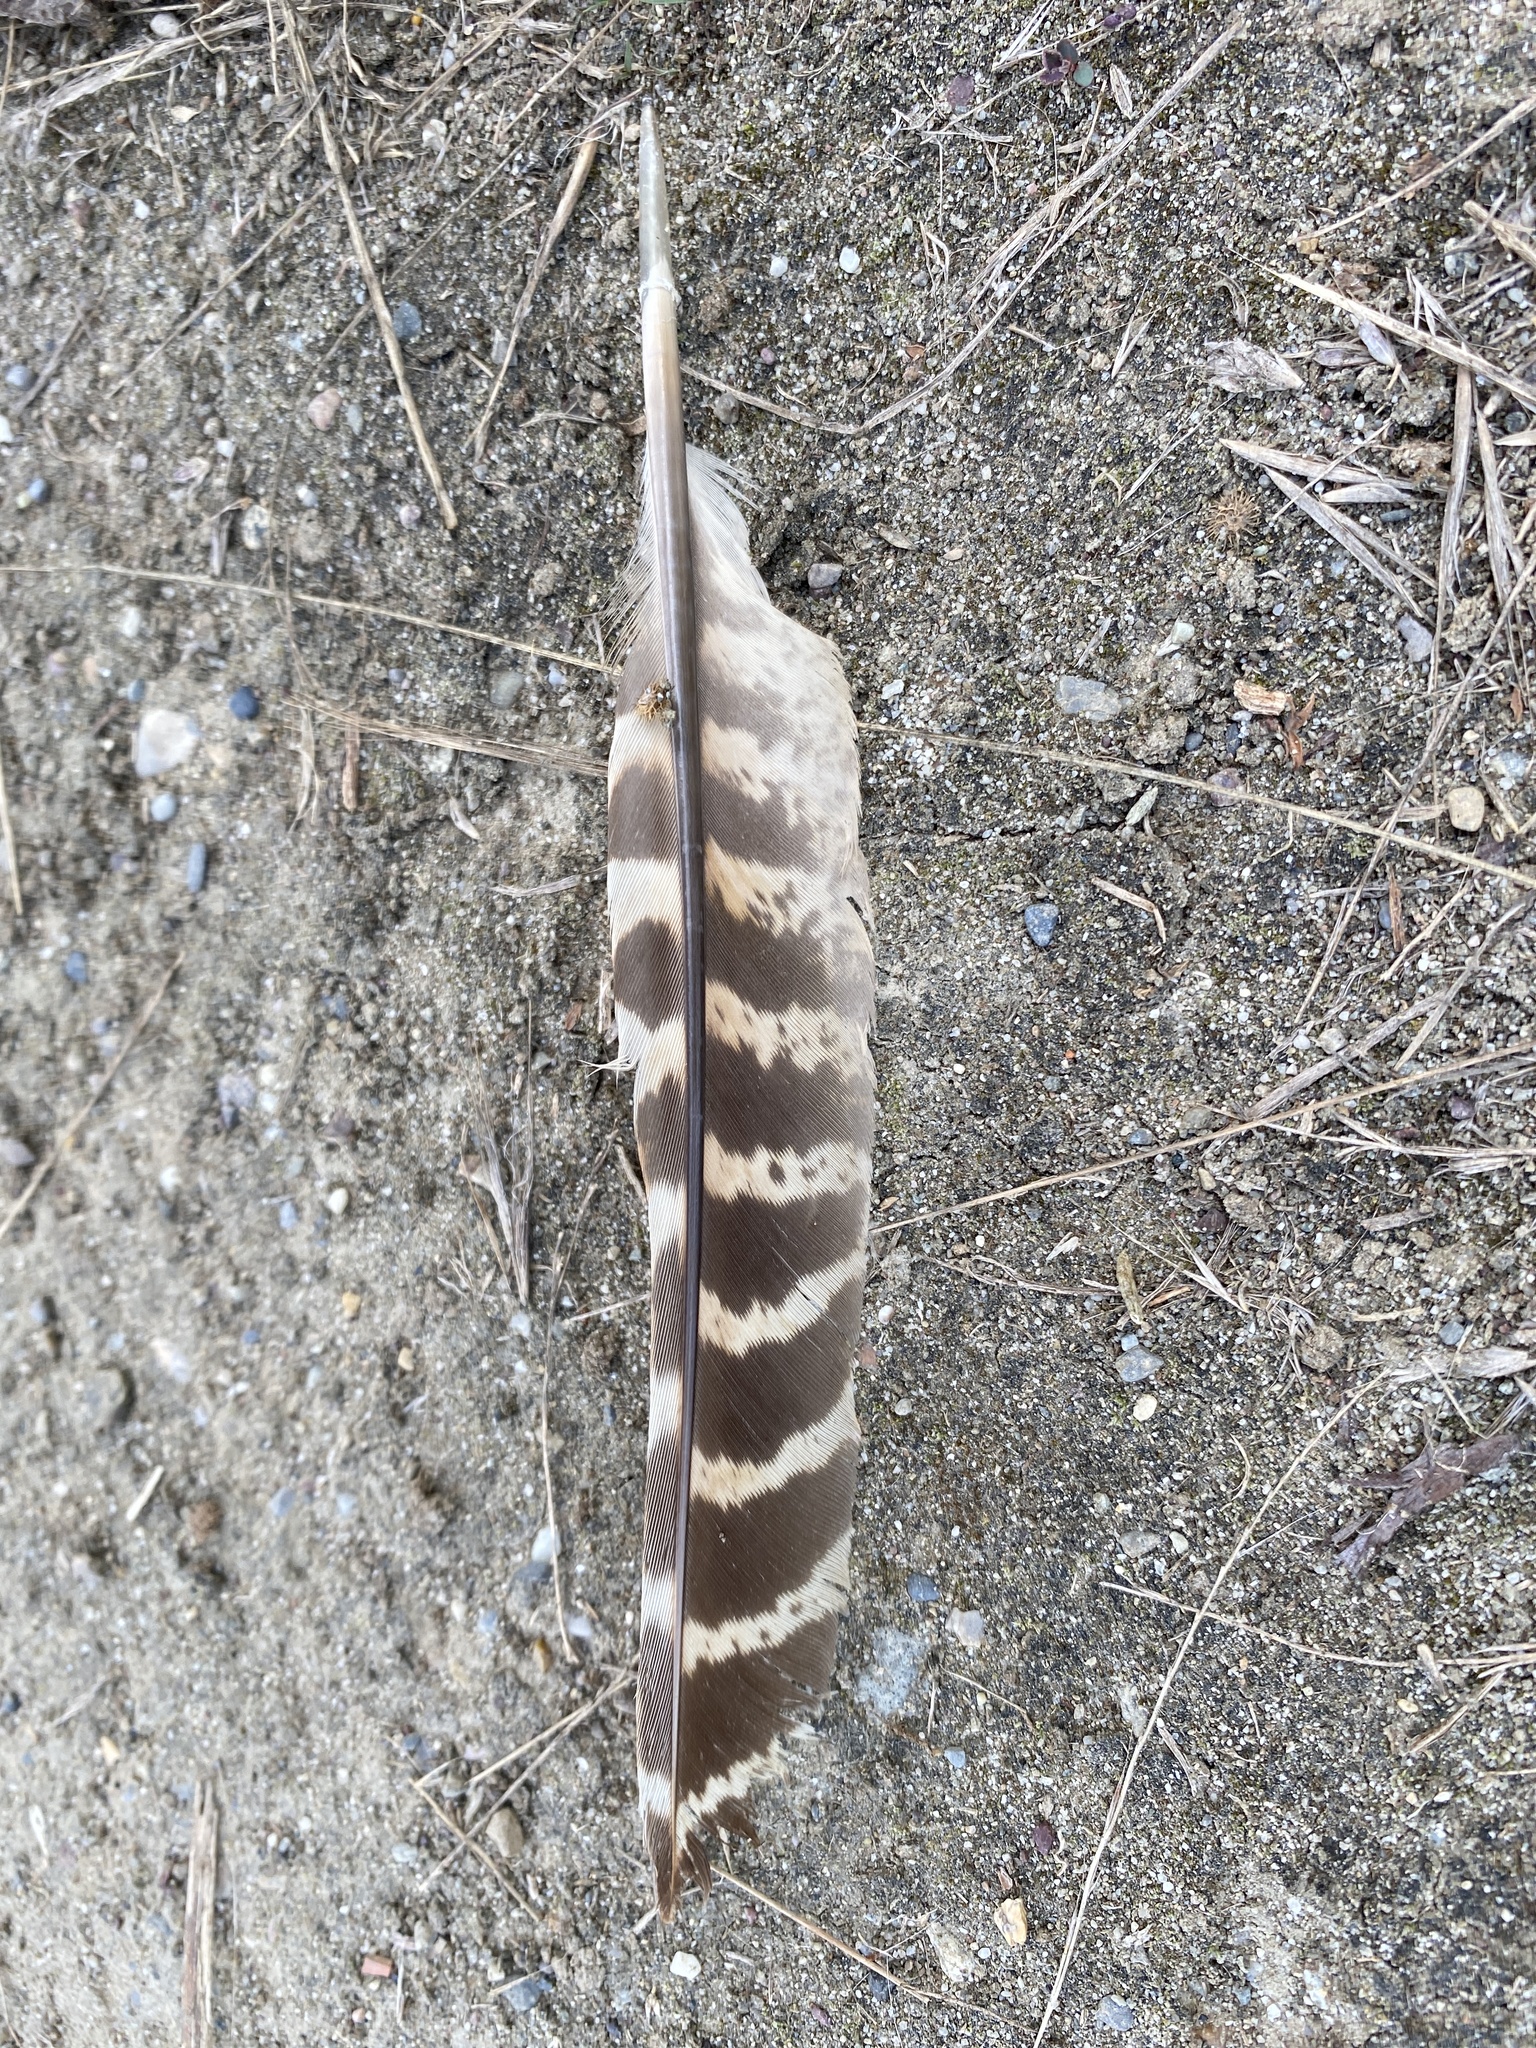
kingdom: Animalia
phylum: Chordata
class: Aves
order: Galliformes
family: Phasianidae
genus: Phasianus
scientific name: Phasianus colchicus
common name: Common pheasant
